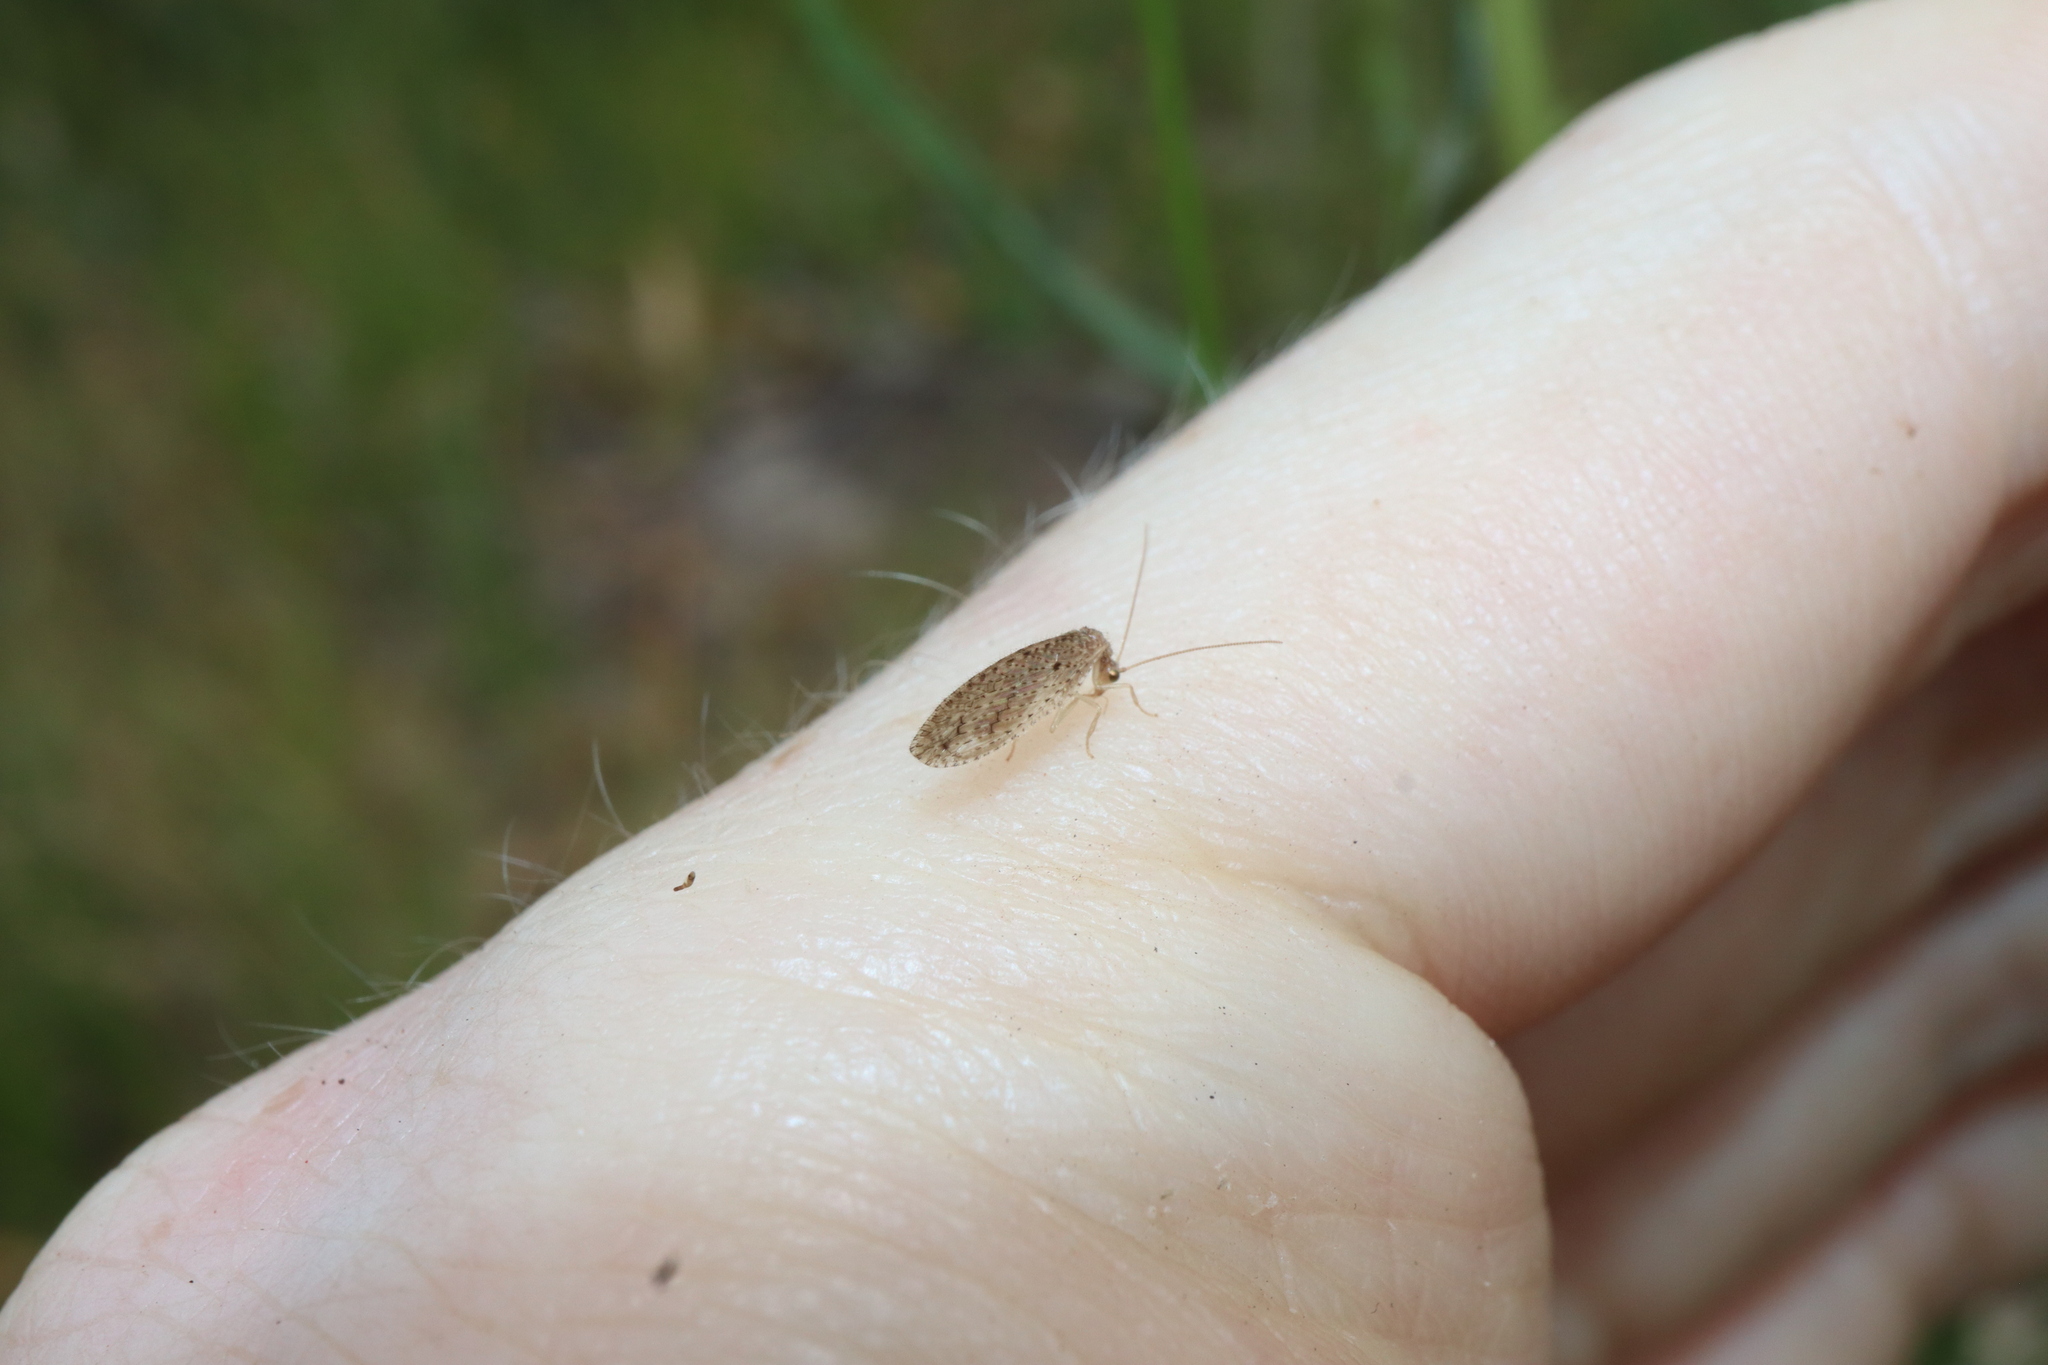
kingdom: Animalia
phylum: Arthropoda
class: Insecta
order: Neuroptera
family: Hemerobiidae
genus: Micromus
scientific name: Micromus tasmaniae
